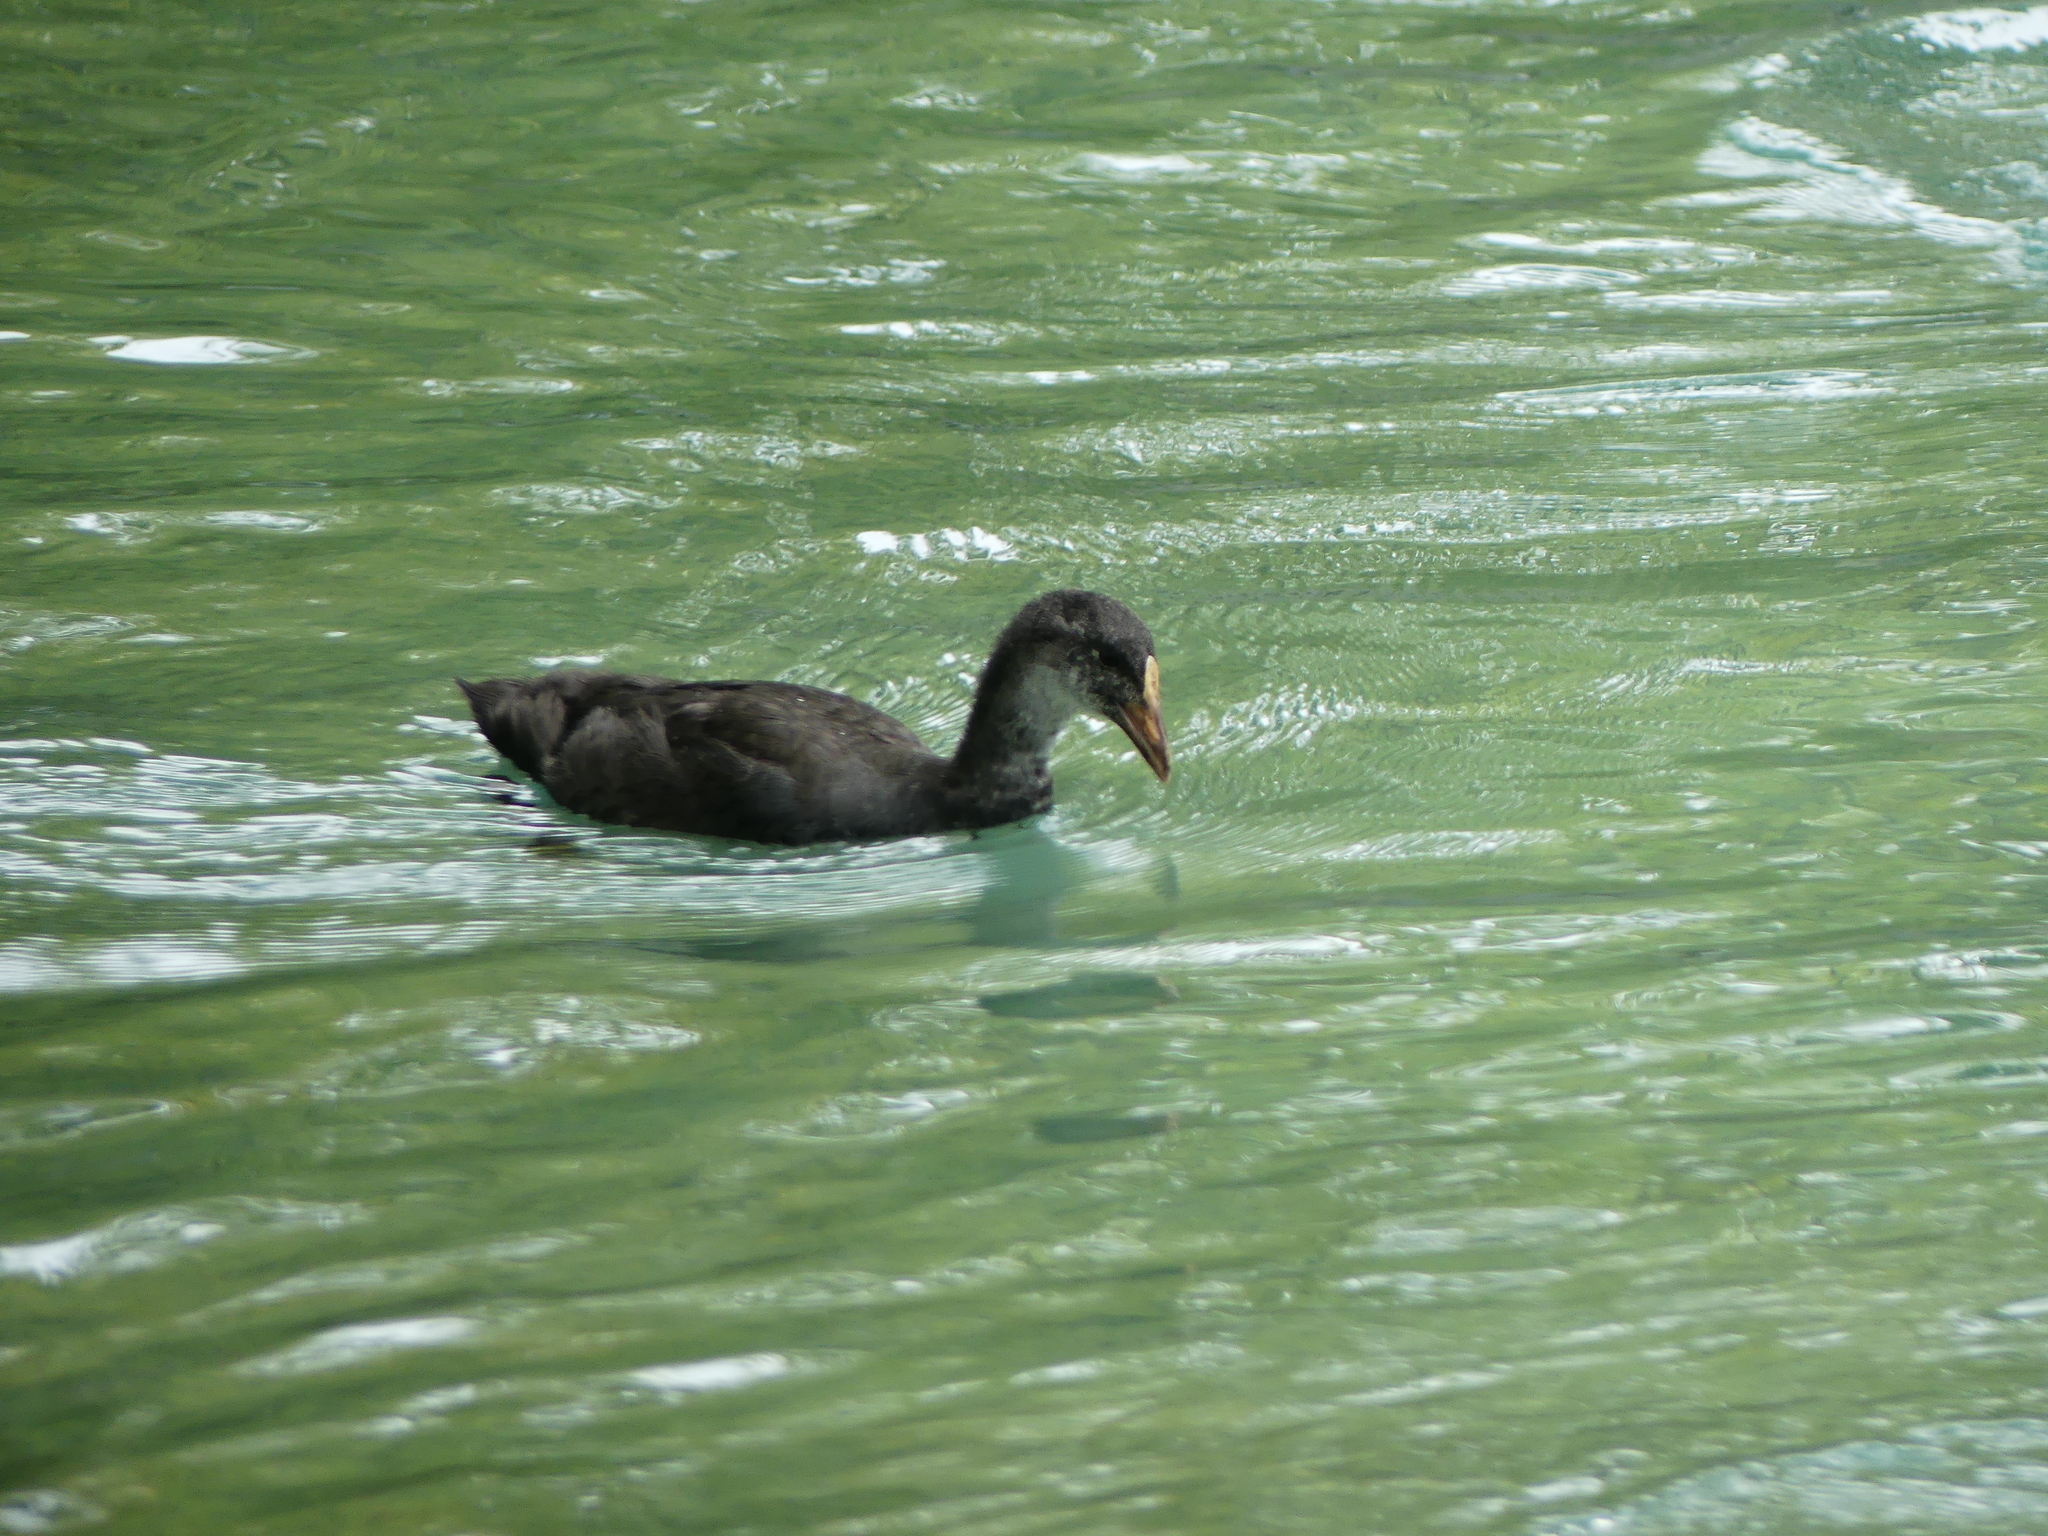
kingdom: Animalia
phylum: Chordata
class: Aves
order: Gruiformes
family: Rallidae
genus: Gallinula
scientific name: Gallinula chloropus
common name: Common moorhen
